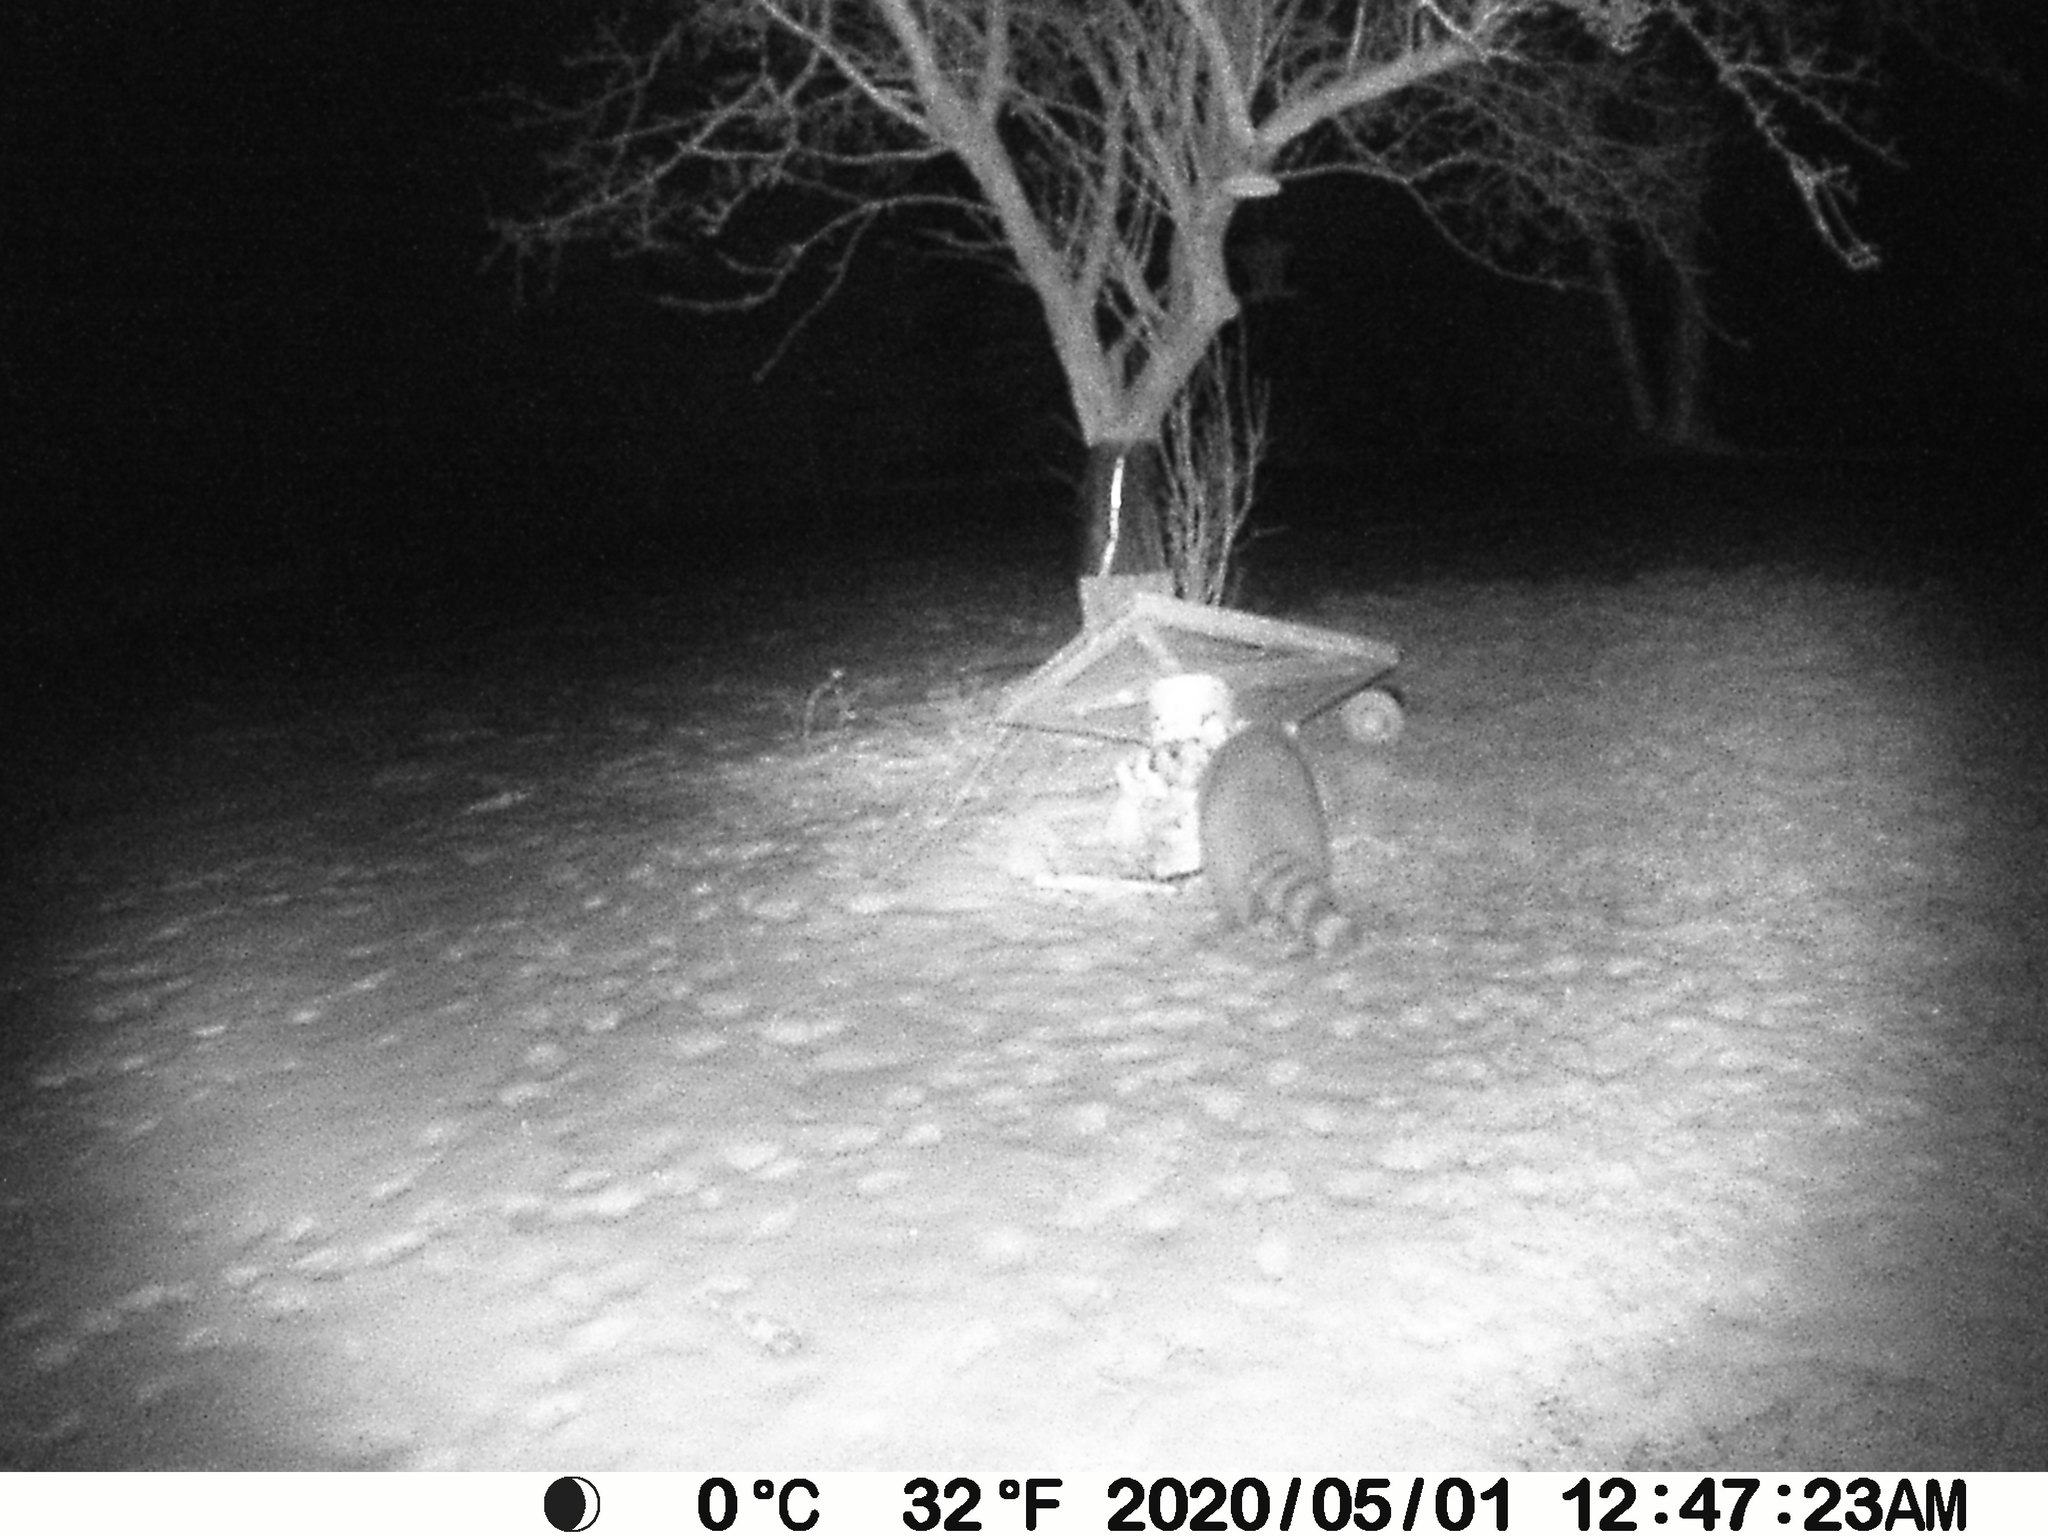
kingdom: Animalia
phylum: Chordata
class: Mammalia
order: Carnivora
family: Procyonidae
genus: Procyon
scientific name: Procyon lotor
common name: Raccoon
